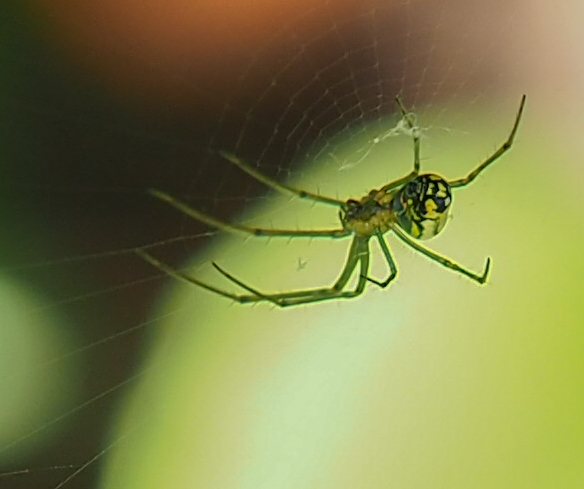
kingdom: Animalia
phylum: Arthropoda
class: Arachnida
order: Araneae
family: Tetragnathidae
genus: Leucauge
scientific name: Leucauge venusta
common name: Longjawed orb weavers
